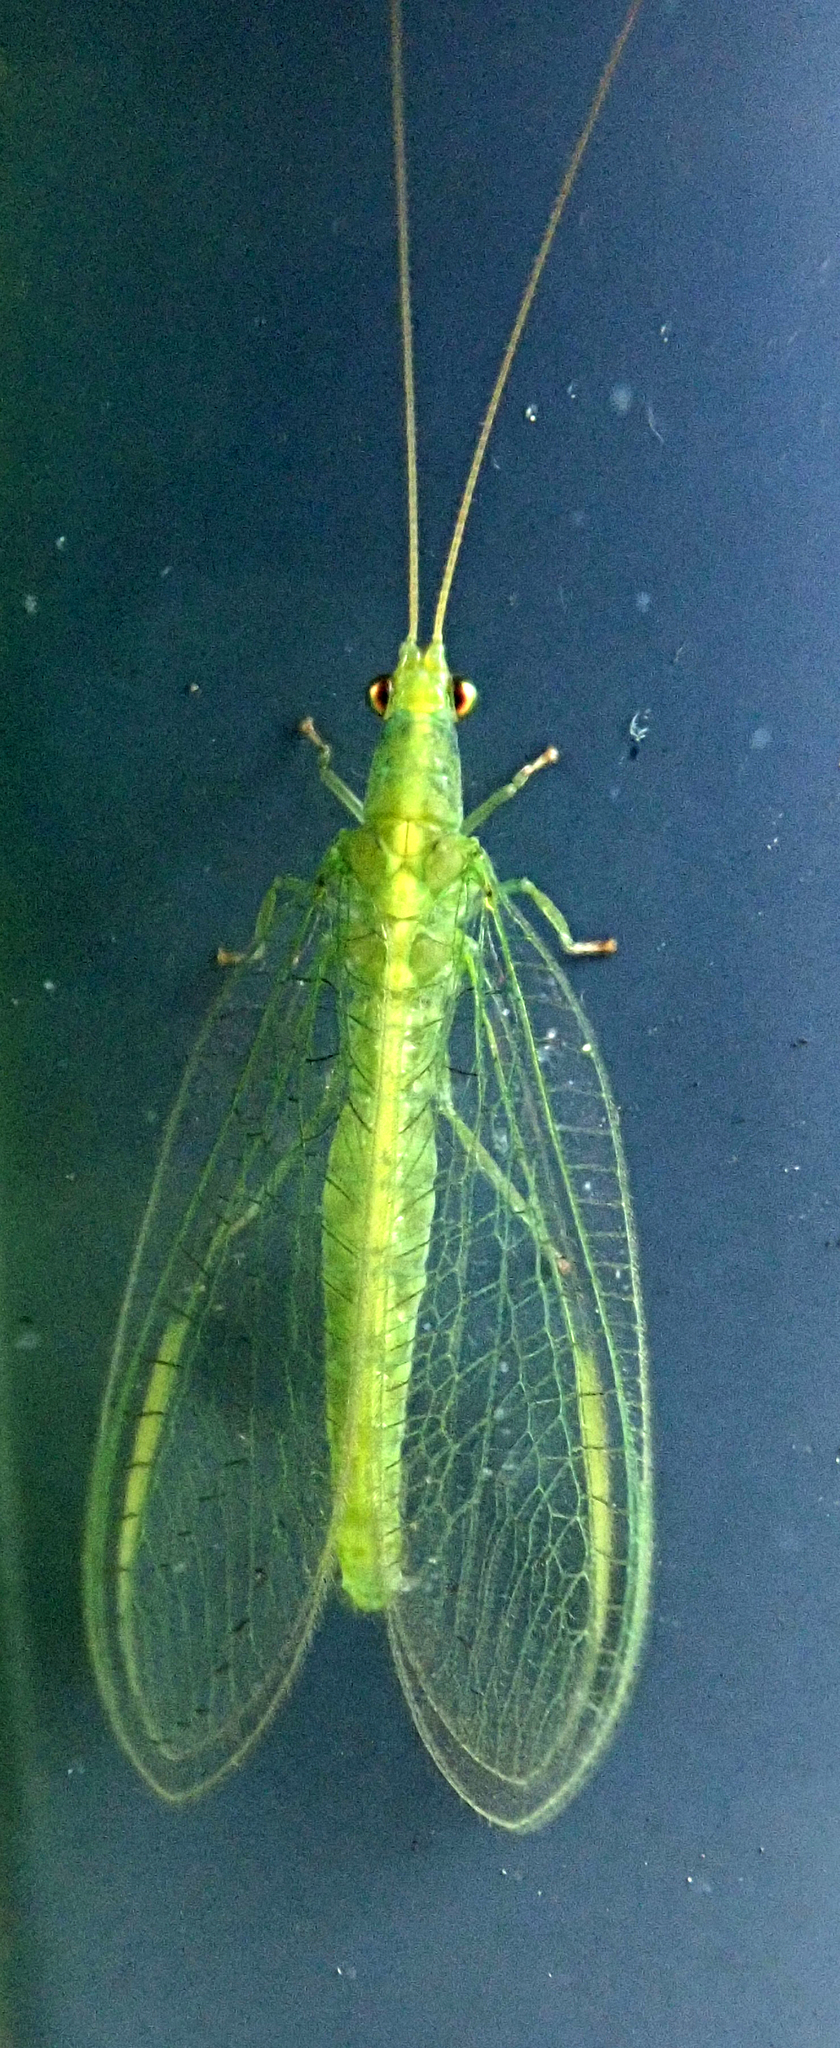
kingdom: Animalia
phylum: Arthropoda
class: Insecta
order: Neuroptera
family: Chrysopidae
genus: Mallada
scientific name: Mallada basalis
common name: Green lacewing
